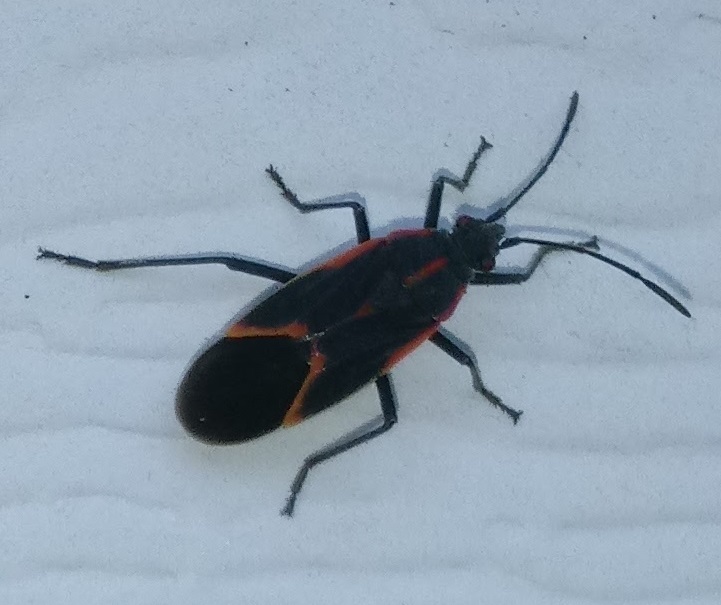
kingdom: Animalia
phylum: Arthropoda
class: Insecta
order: Hemiptera
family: Rhopalidae
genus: Boisea
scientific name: Boisea trivittata
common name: Boxelder bug
